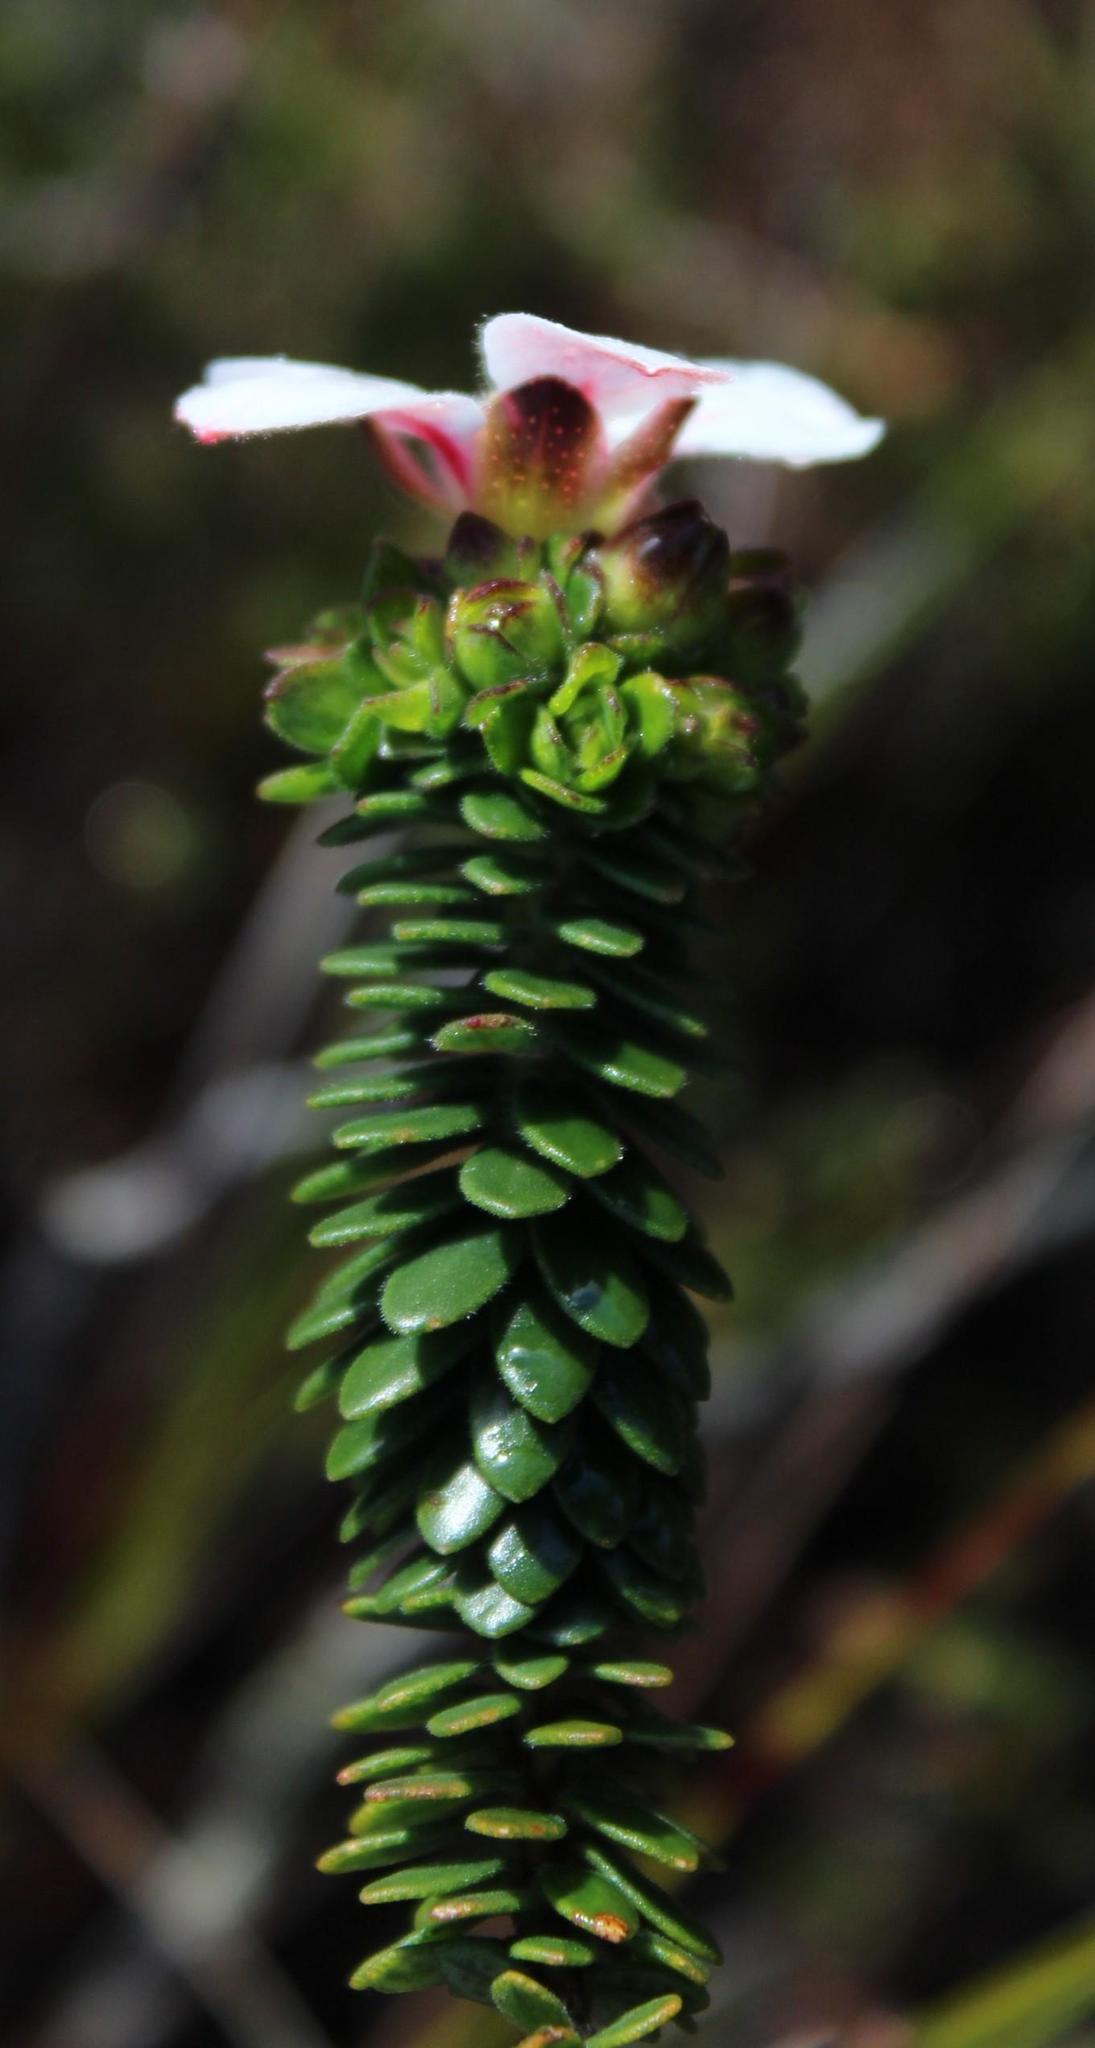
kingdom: Plantae
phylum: Tracheophyta
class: Magnoliopsida
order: Sapindales
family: Rutaceae
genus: Adenandra
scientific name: Adenandra villosa
